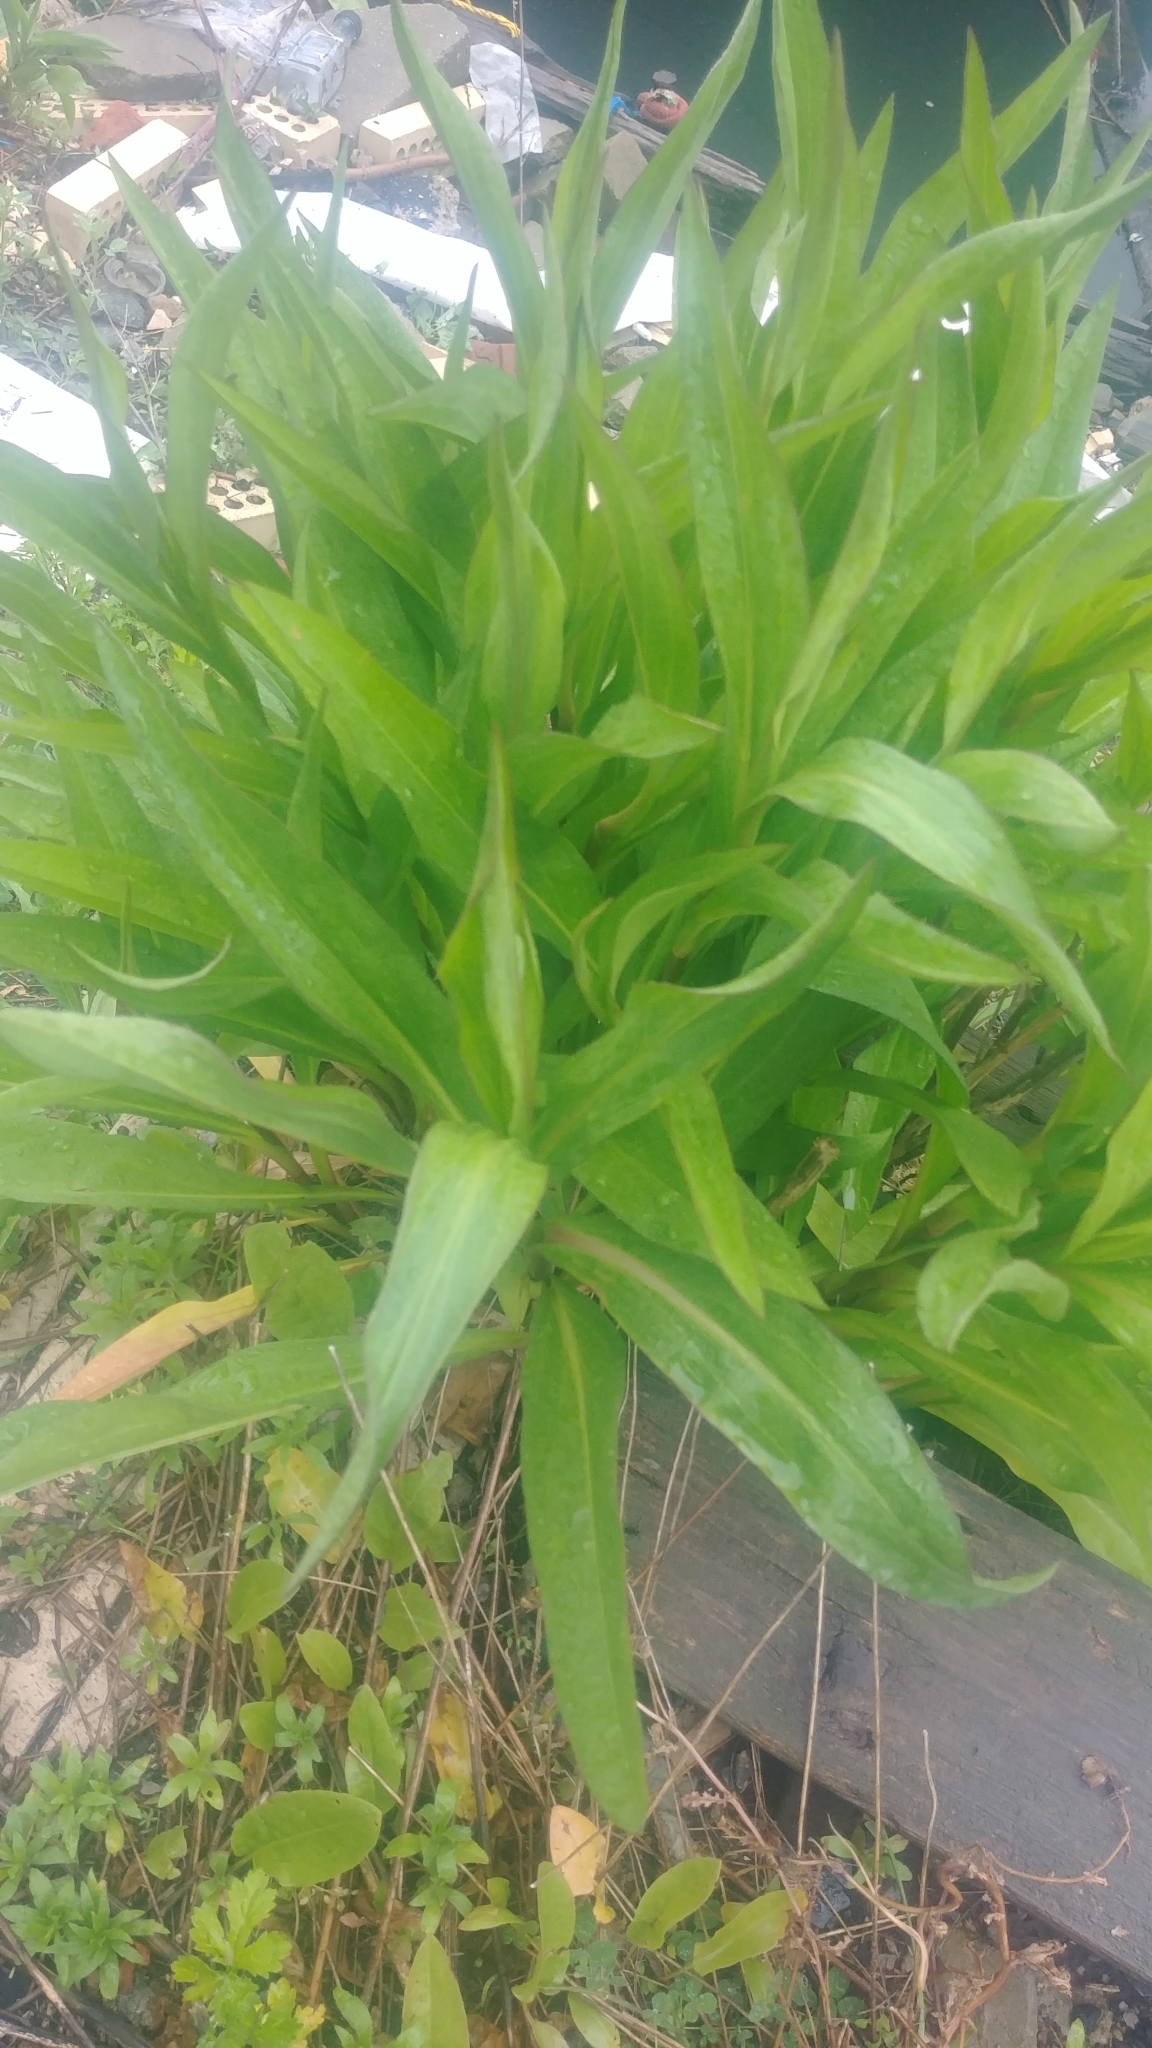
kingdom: Plantae
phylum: Tracheophyta
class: Magnoliopsida
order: Asterales
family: Asteraceae
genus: Solidago
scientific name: Solidago sempervirens
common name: Salt-marsh goldenrod
